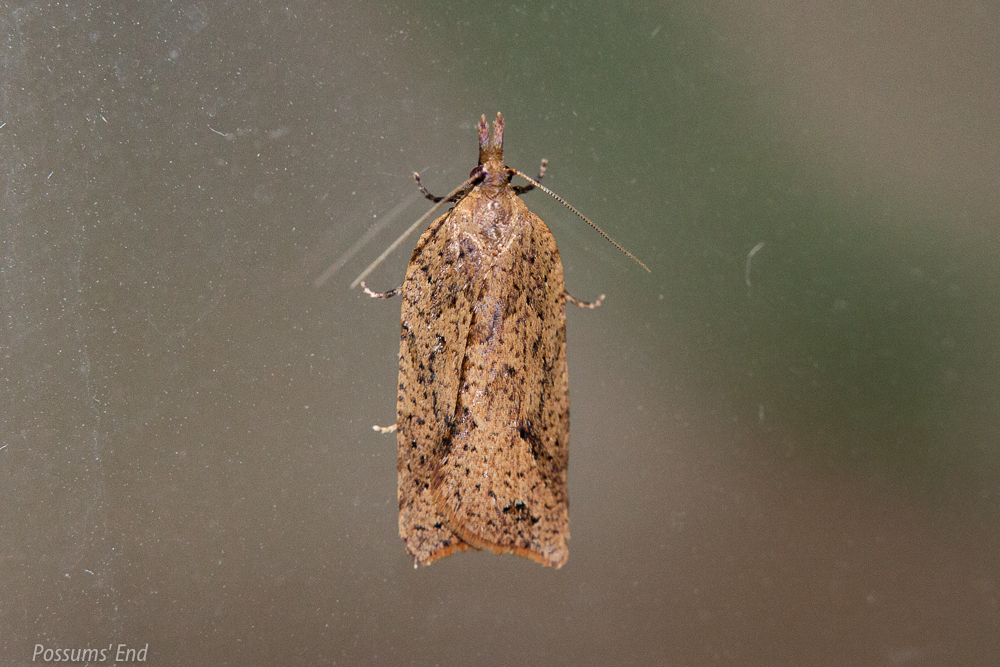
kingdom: Animalia
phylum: Arthropoda
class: Insecta
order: Lepidoptera
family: Tortricidae
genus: Ctenopseustis
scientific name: Ctenopseustis obliquana
